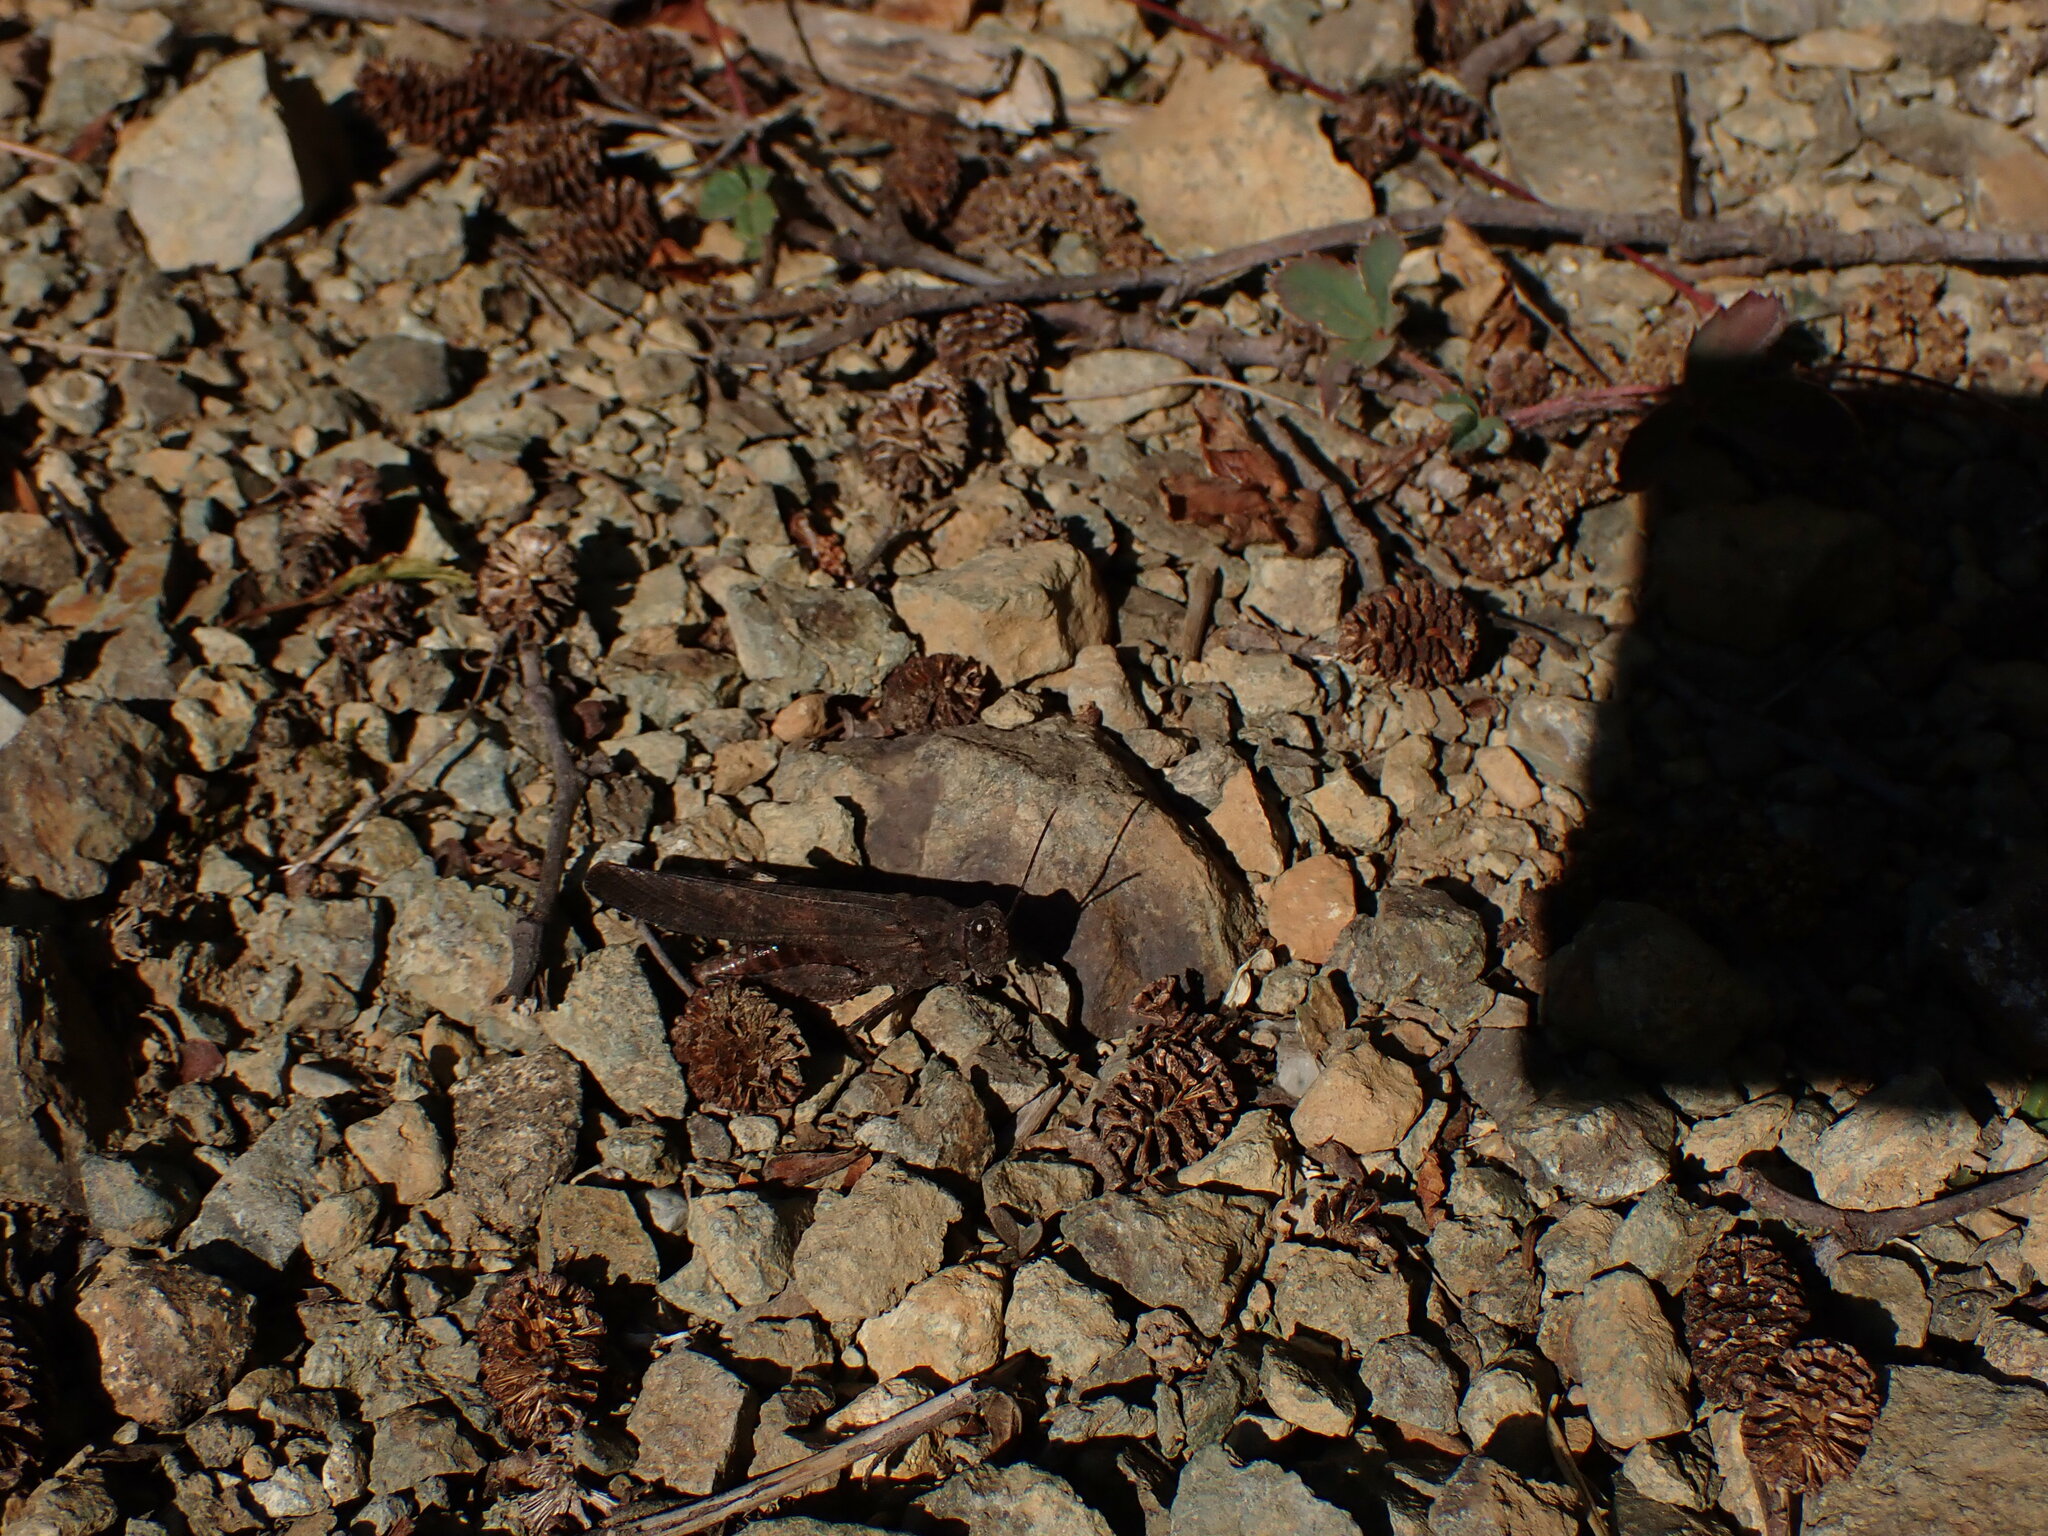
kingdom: Animalia
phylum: Arthropoda
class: Insecta
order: Orthoptera
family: Acrididae
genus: Trimerotropis
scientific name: Trimerotropis verruculata
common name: Crackling forest grasshopper
